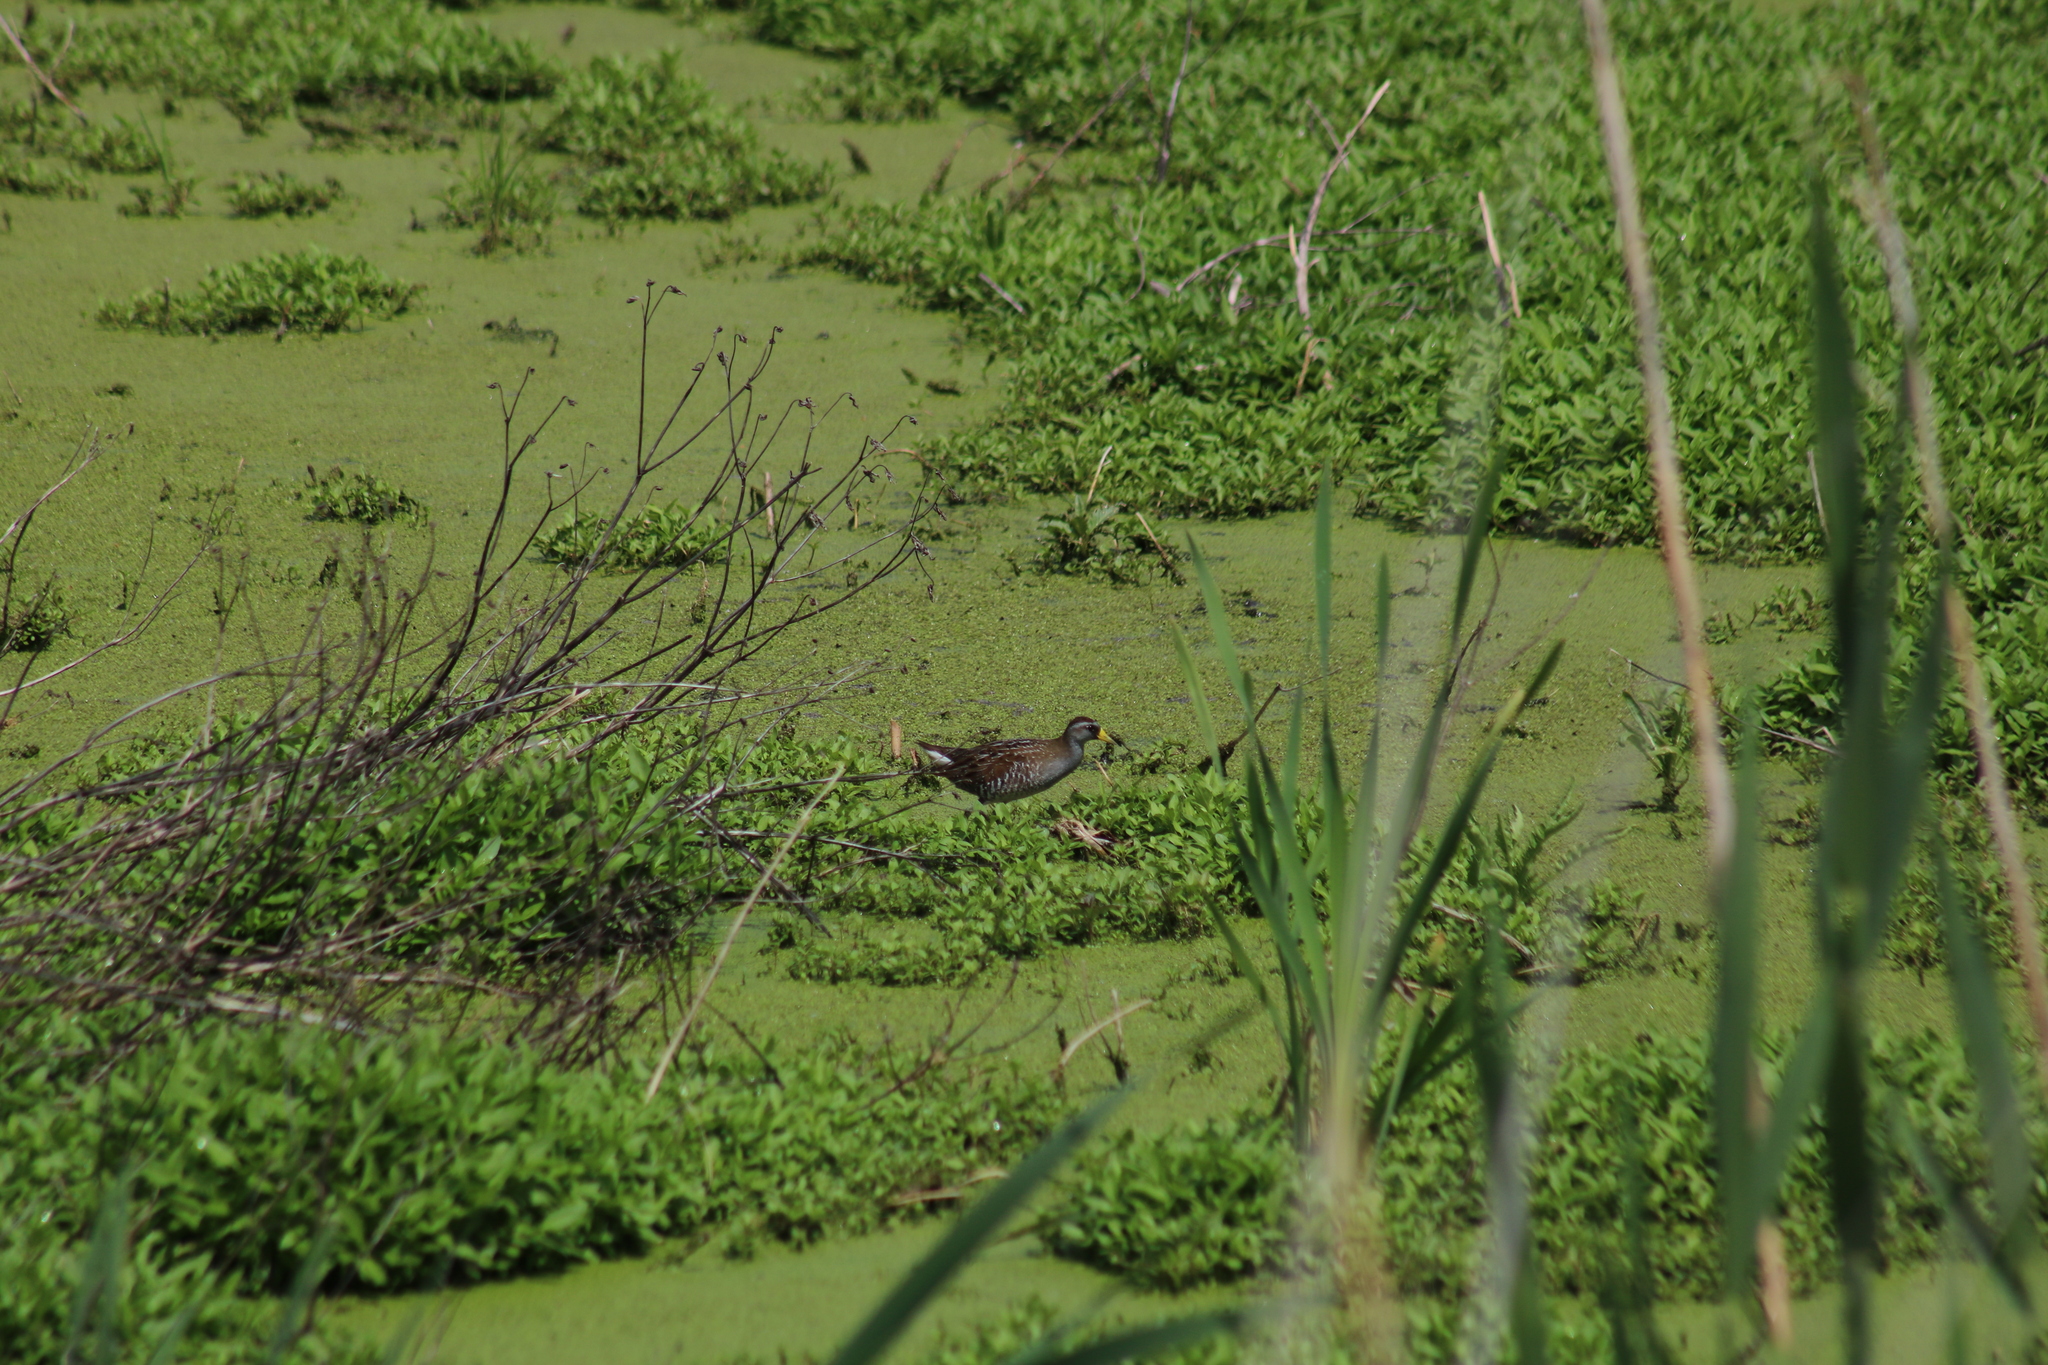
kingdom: Animalia
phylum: Chordata
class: Aves
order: Gruiformes
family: Rallidae
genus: Porzana
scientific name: Porzana carolina
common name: Sora
